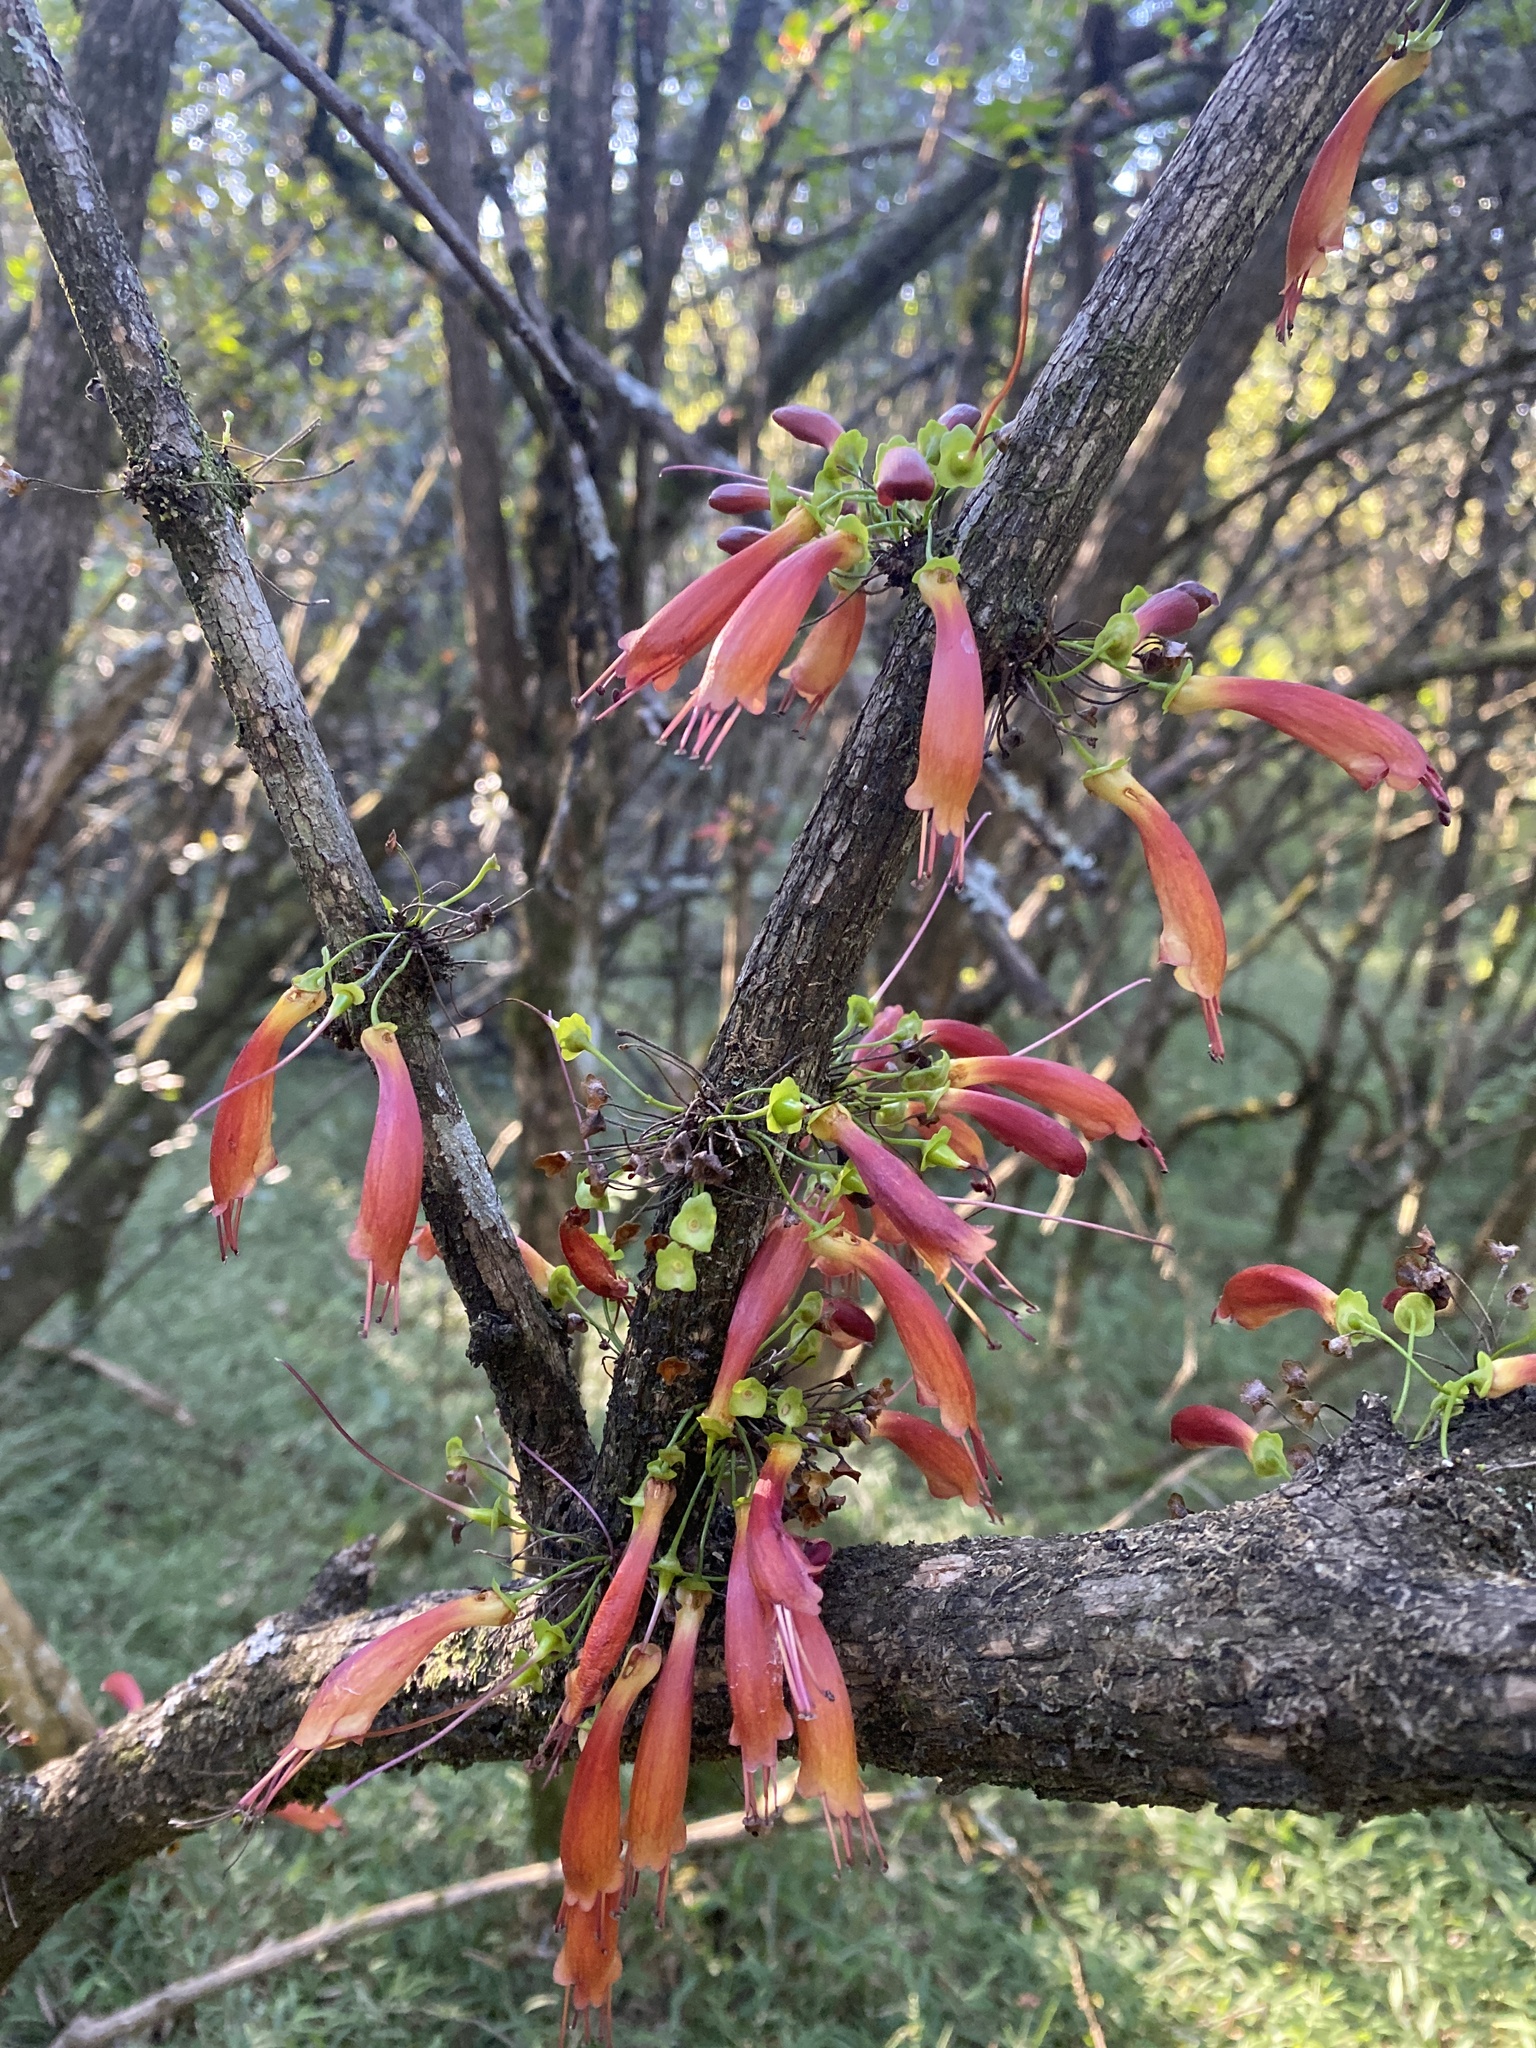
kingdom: Plantae
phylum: Tracheophyta
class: Magnoliopsida
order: Lamiales
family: Stilbaceae
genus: Halleria
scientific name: Halleria lucida
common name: Tree fuschia
